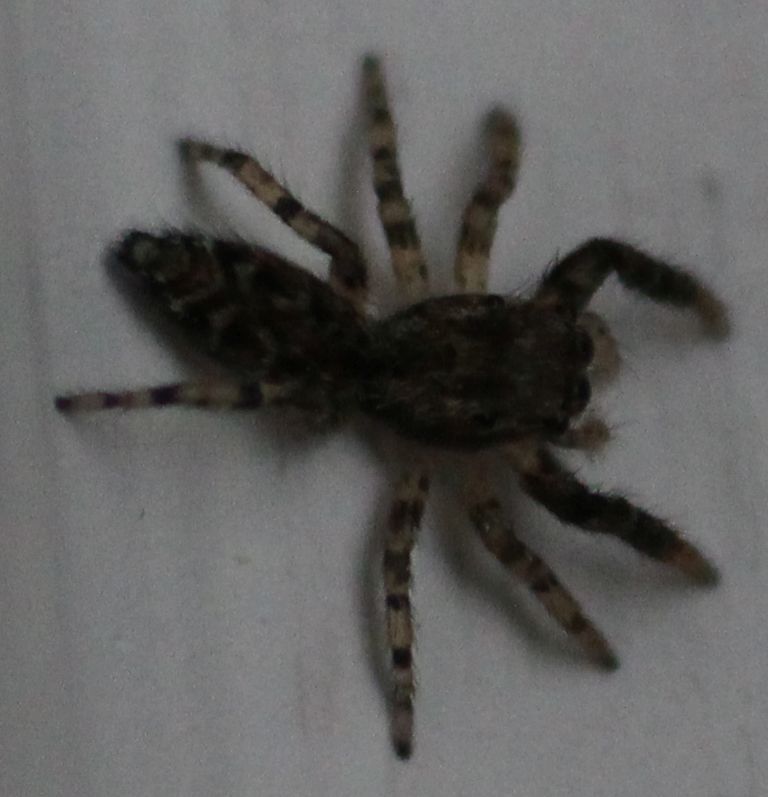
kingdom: Animalia
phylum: Arthropoda
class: Arachnida
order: Araneae
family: Salticidae
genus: Marpissa
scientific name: Marpissa muscosa
